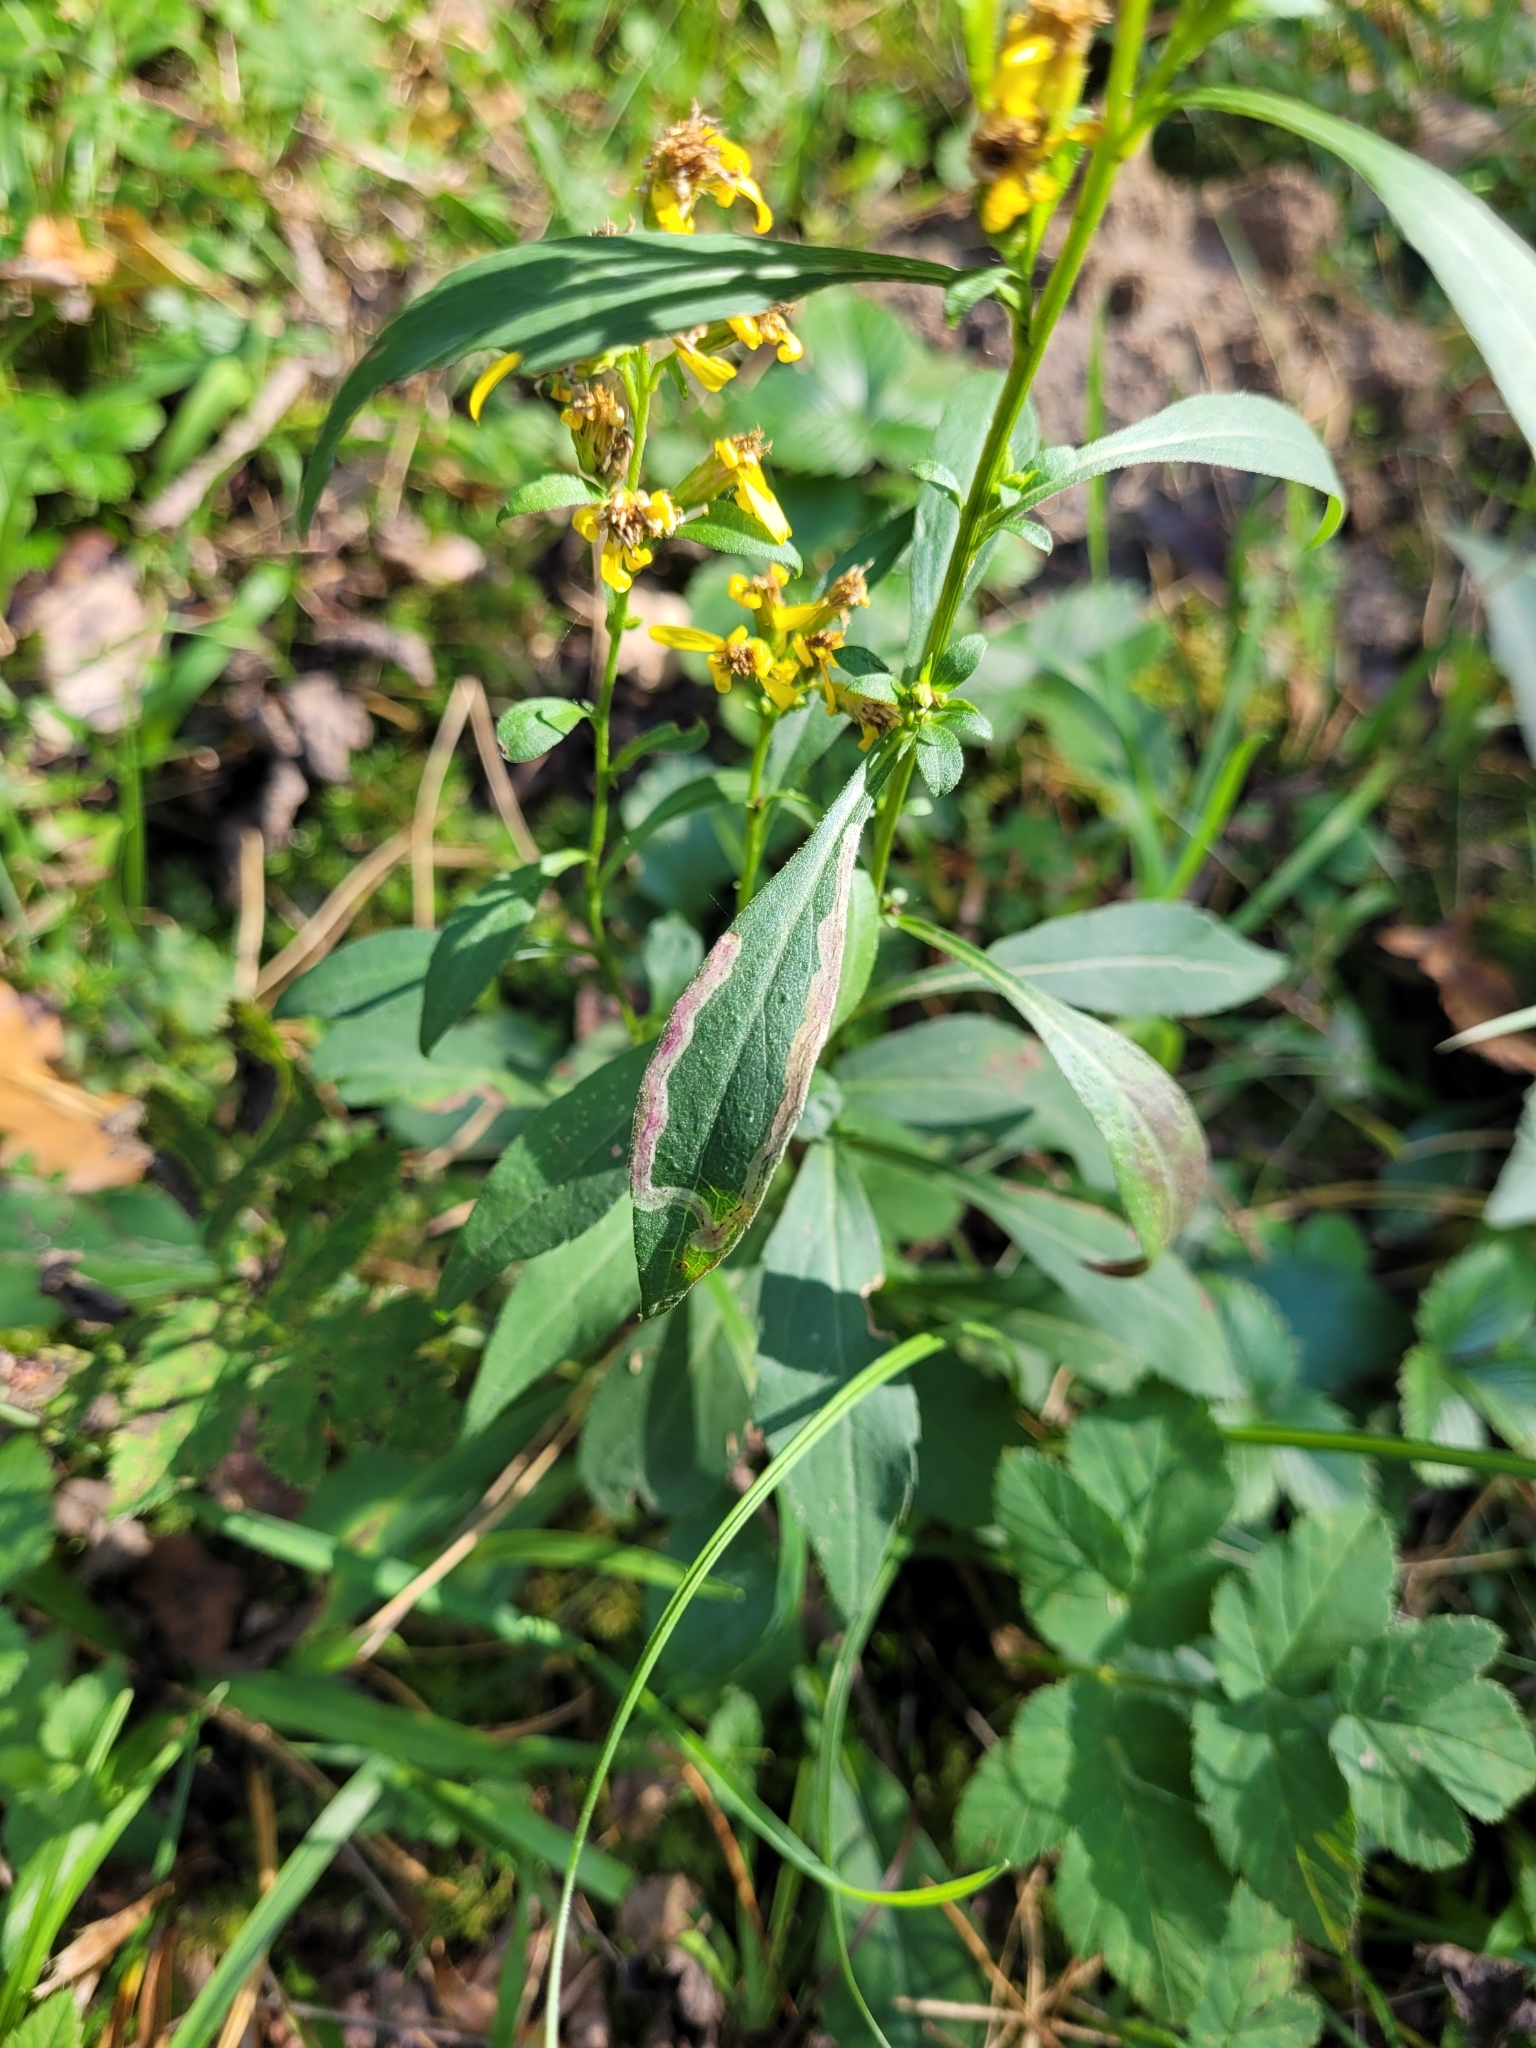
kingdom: Plantae
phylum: Tracheophyta
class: Magnoliopsida
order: Asterales
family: Asteraceae
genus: Solidago
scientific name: Solidago virgaurea
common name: Goldenrod
